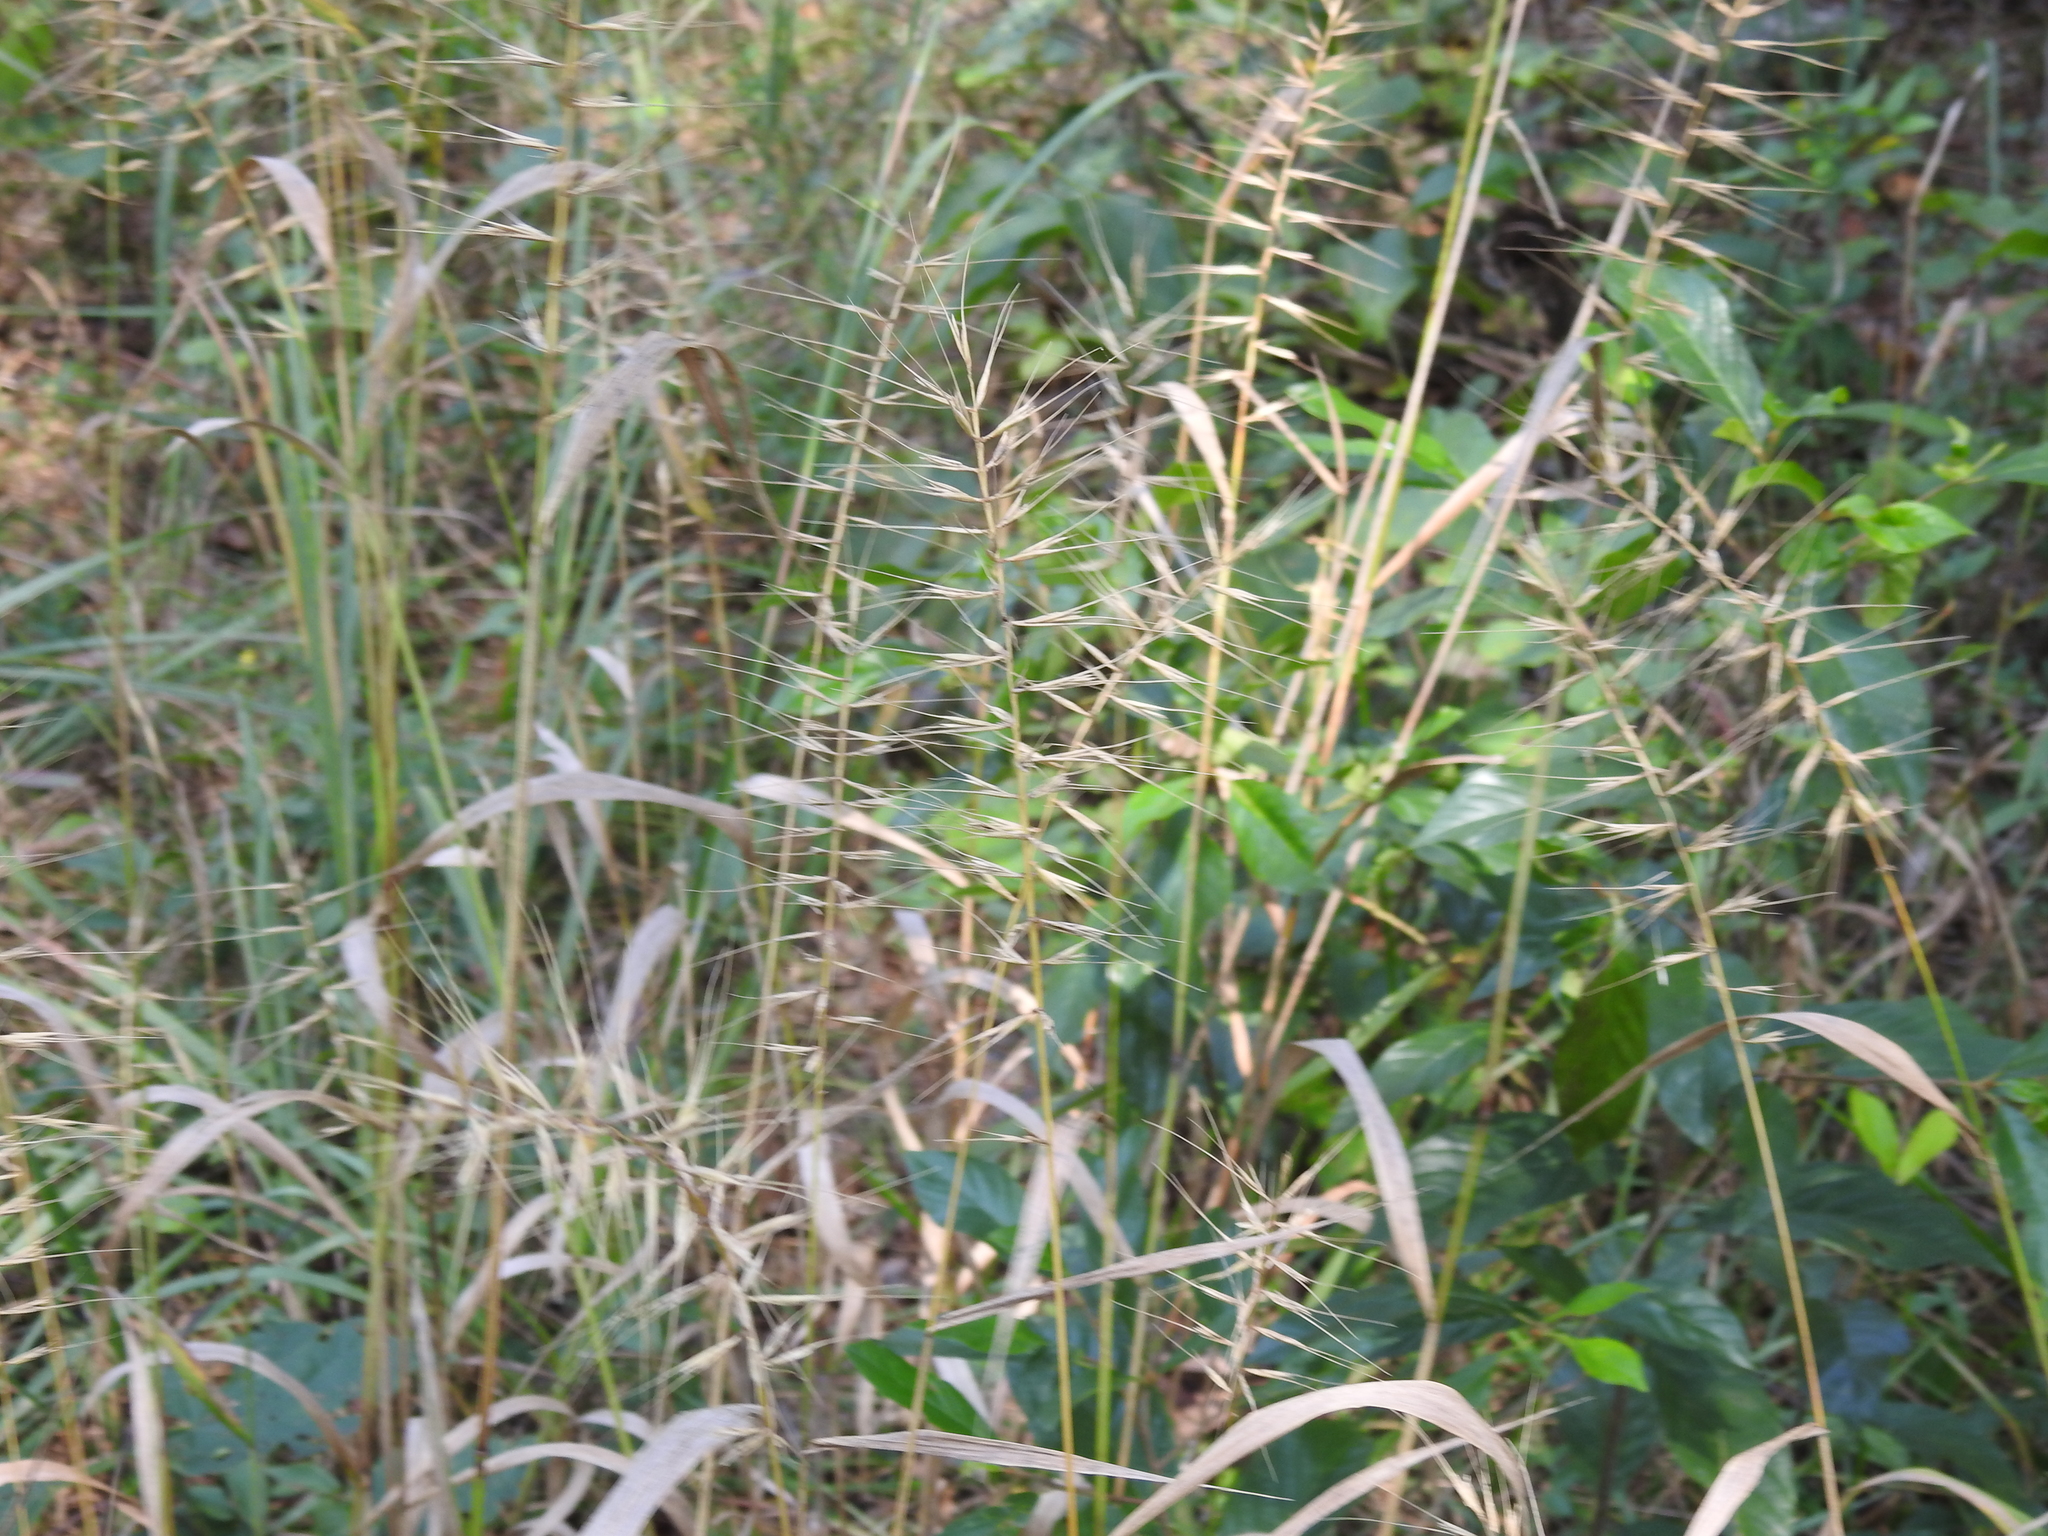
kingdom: Plantae
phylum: Tracheophyta
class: Liliopsida
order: Poales
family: Poaceae
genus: Elymus
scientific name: Elymus hystrix
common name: Bottlebrush grass
